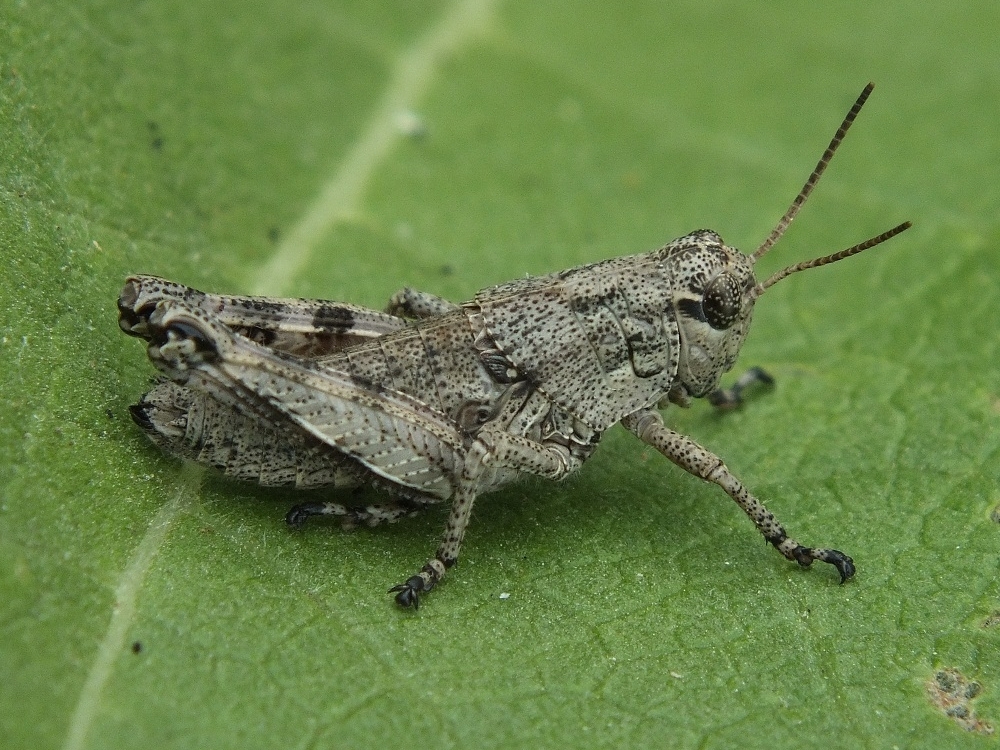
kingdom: Animalia
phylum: Arthropoda
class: Insecta
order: Orthoptera
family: Acrididae
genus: Podisma
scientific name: Podisma pedestris
